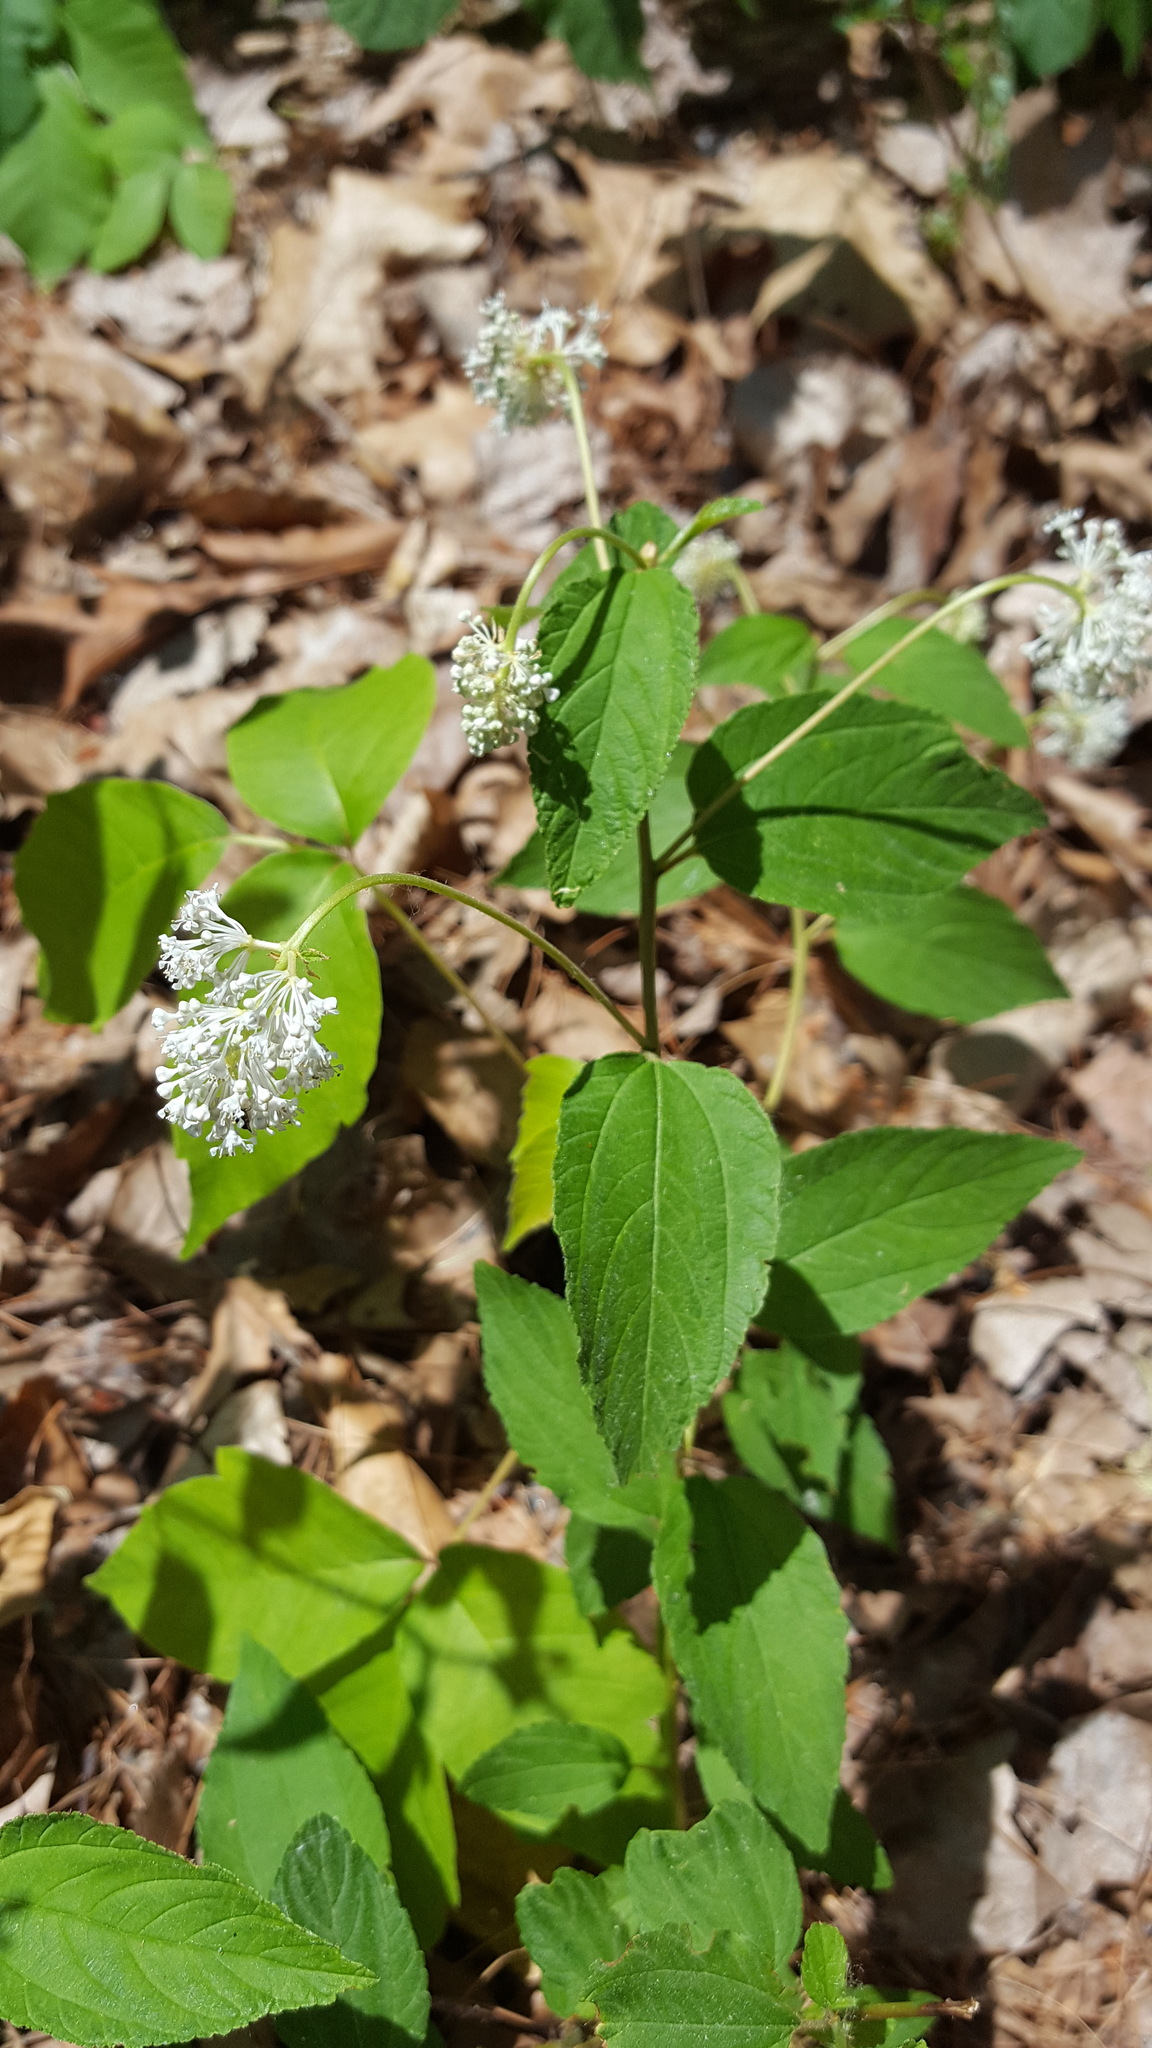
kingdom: Plantae
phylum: Tracheophyta
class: Magnoliopsida
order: Rosales
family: Rhamnaceae
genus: Ceanothus
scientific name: Ceanothus americanus
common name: Redroot
